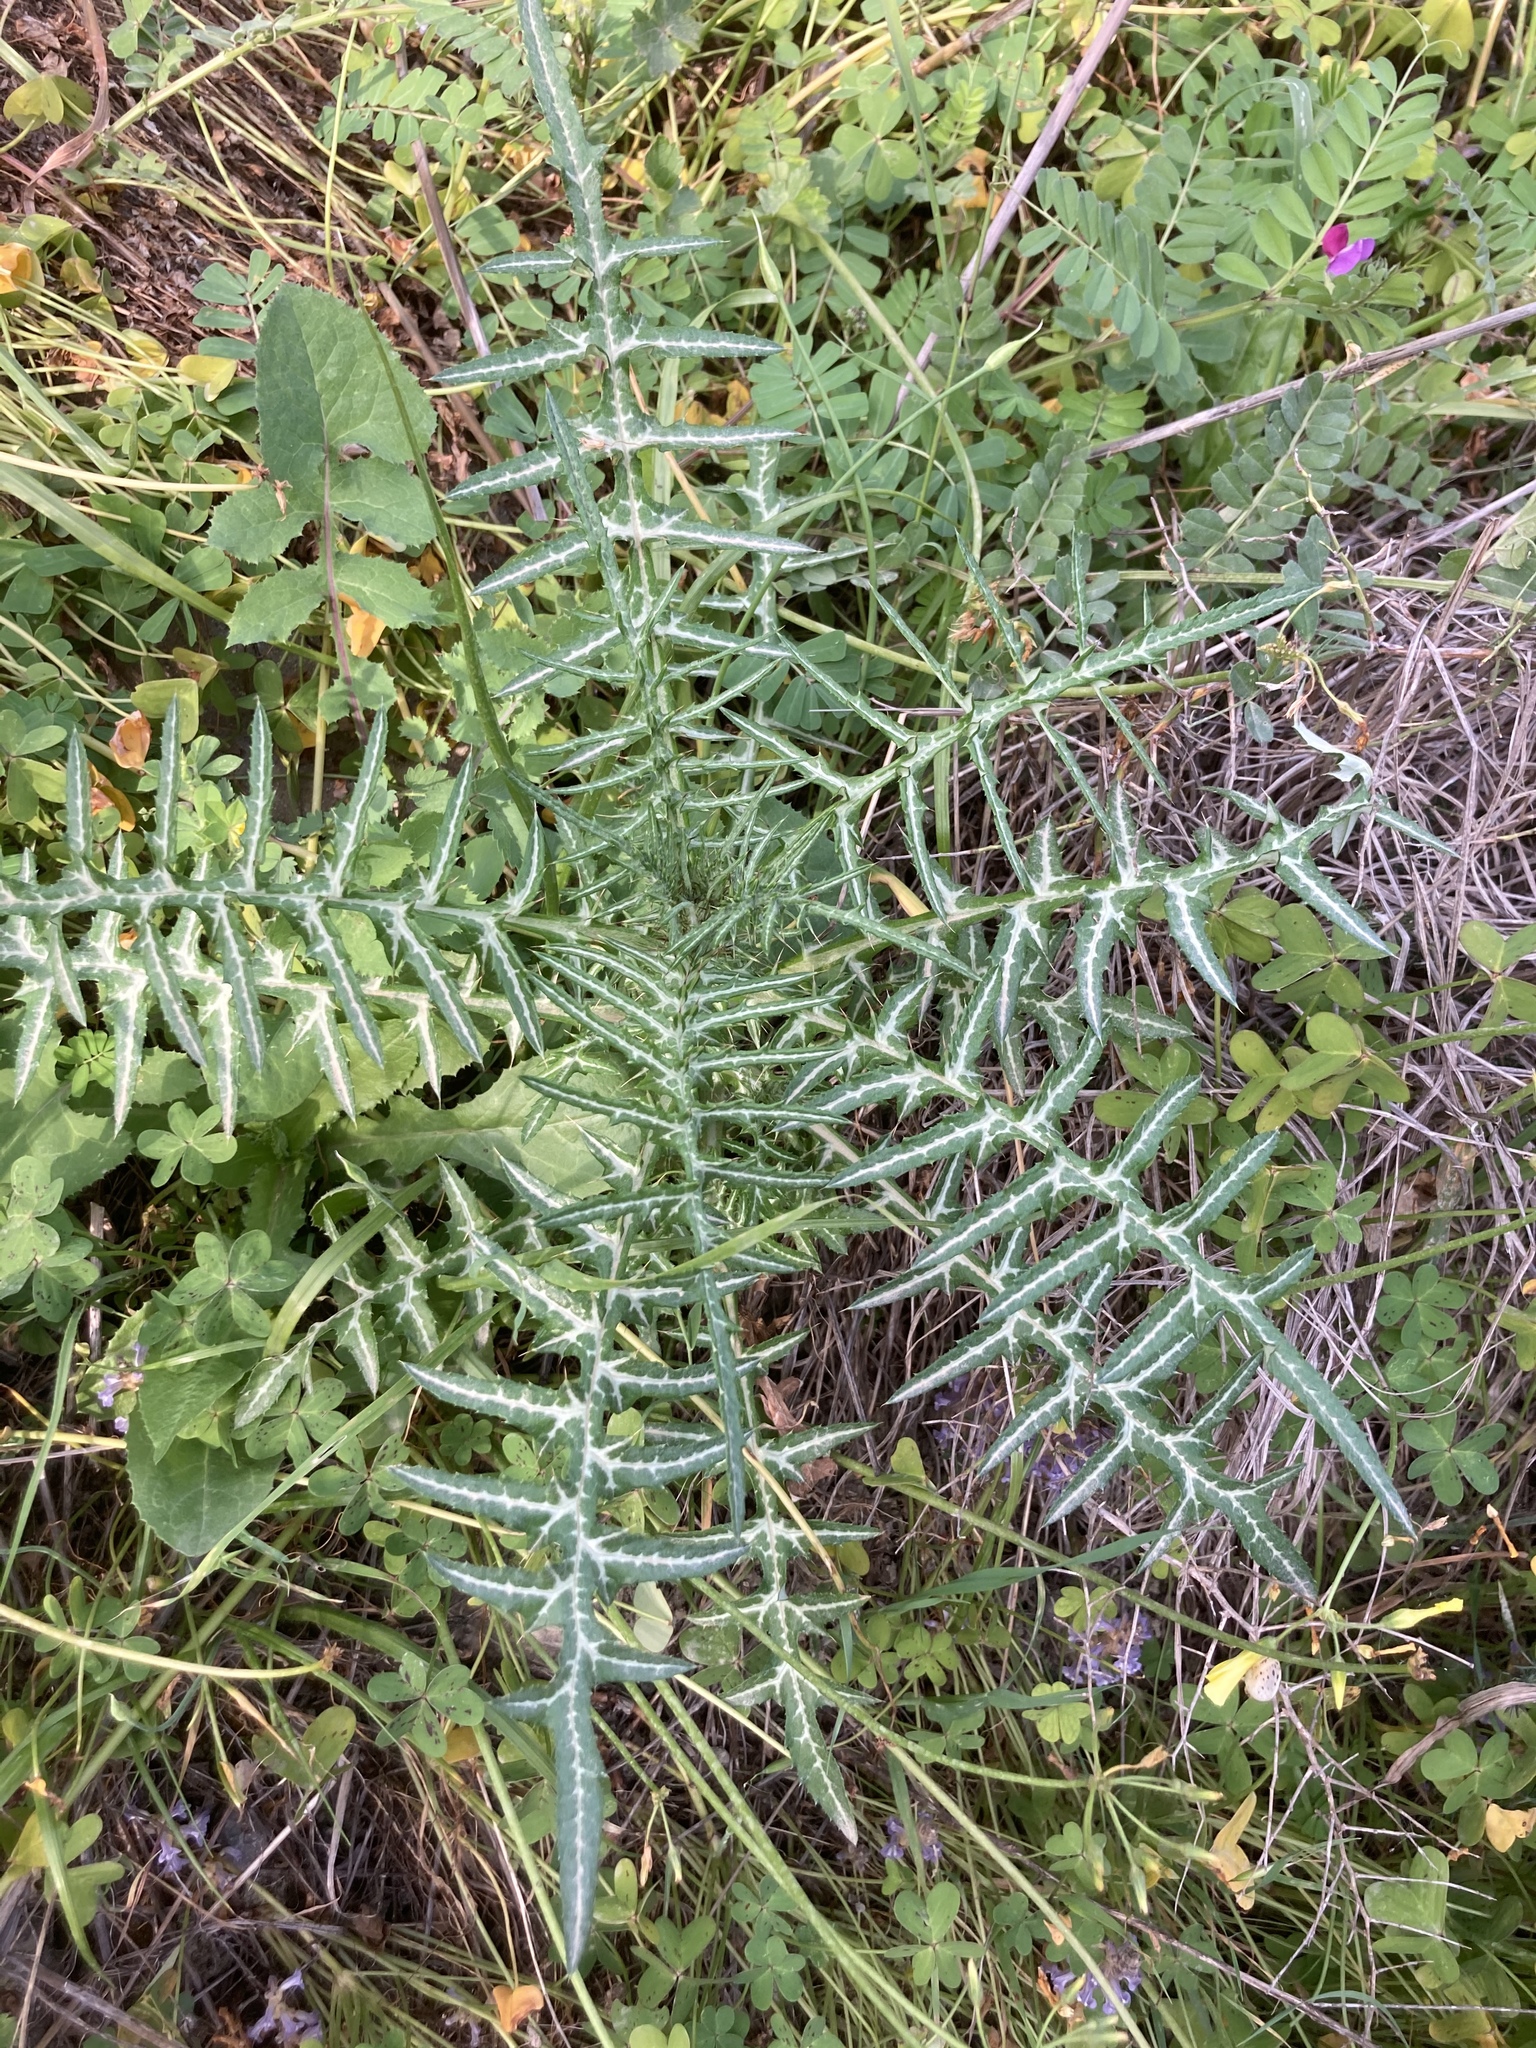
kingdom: Plantae
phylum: Tracheophyta
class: Magnoliopsida
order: Asterales
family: Asteraceae
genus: Galactites
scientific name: Galactites tomentosa
